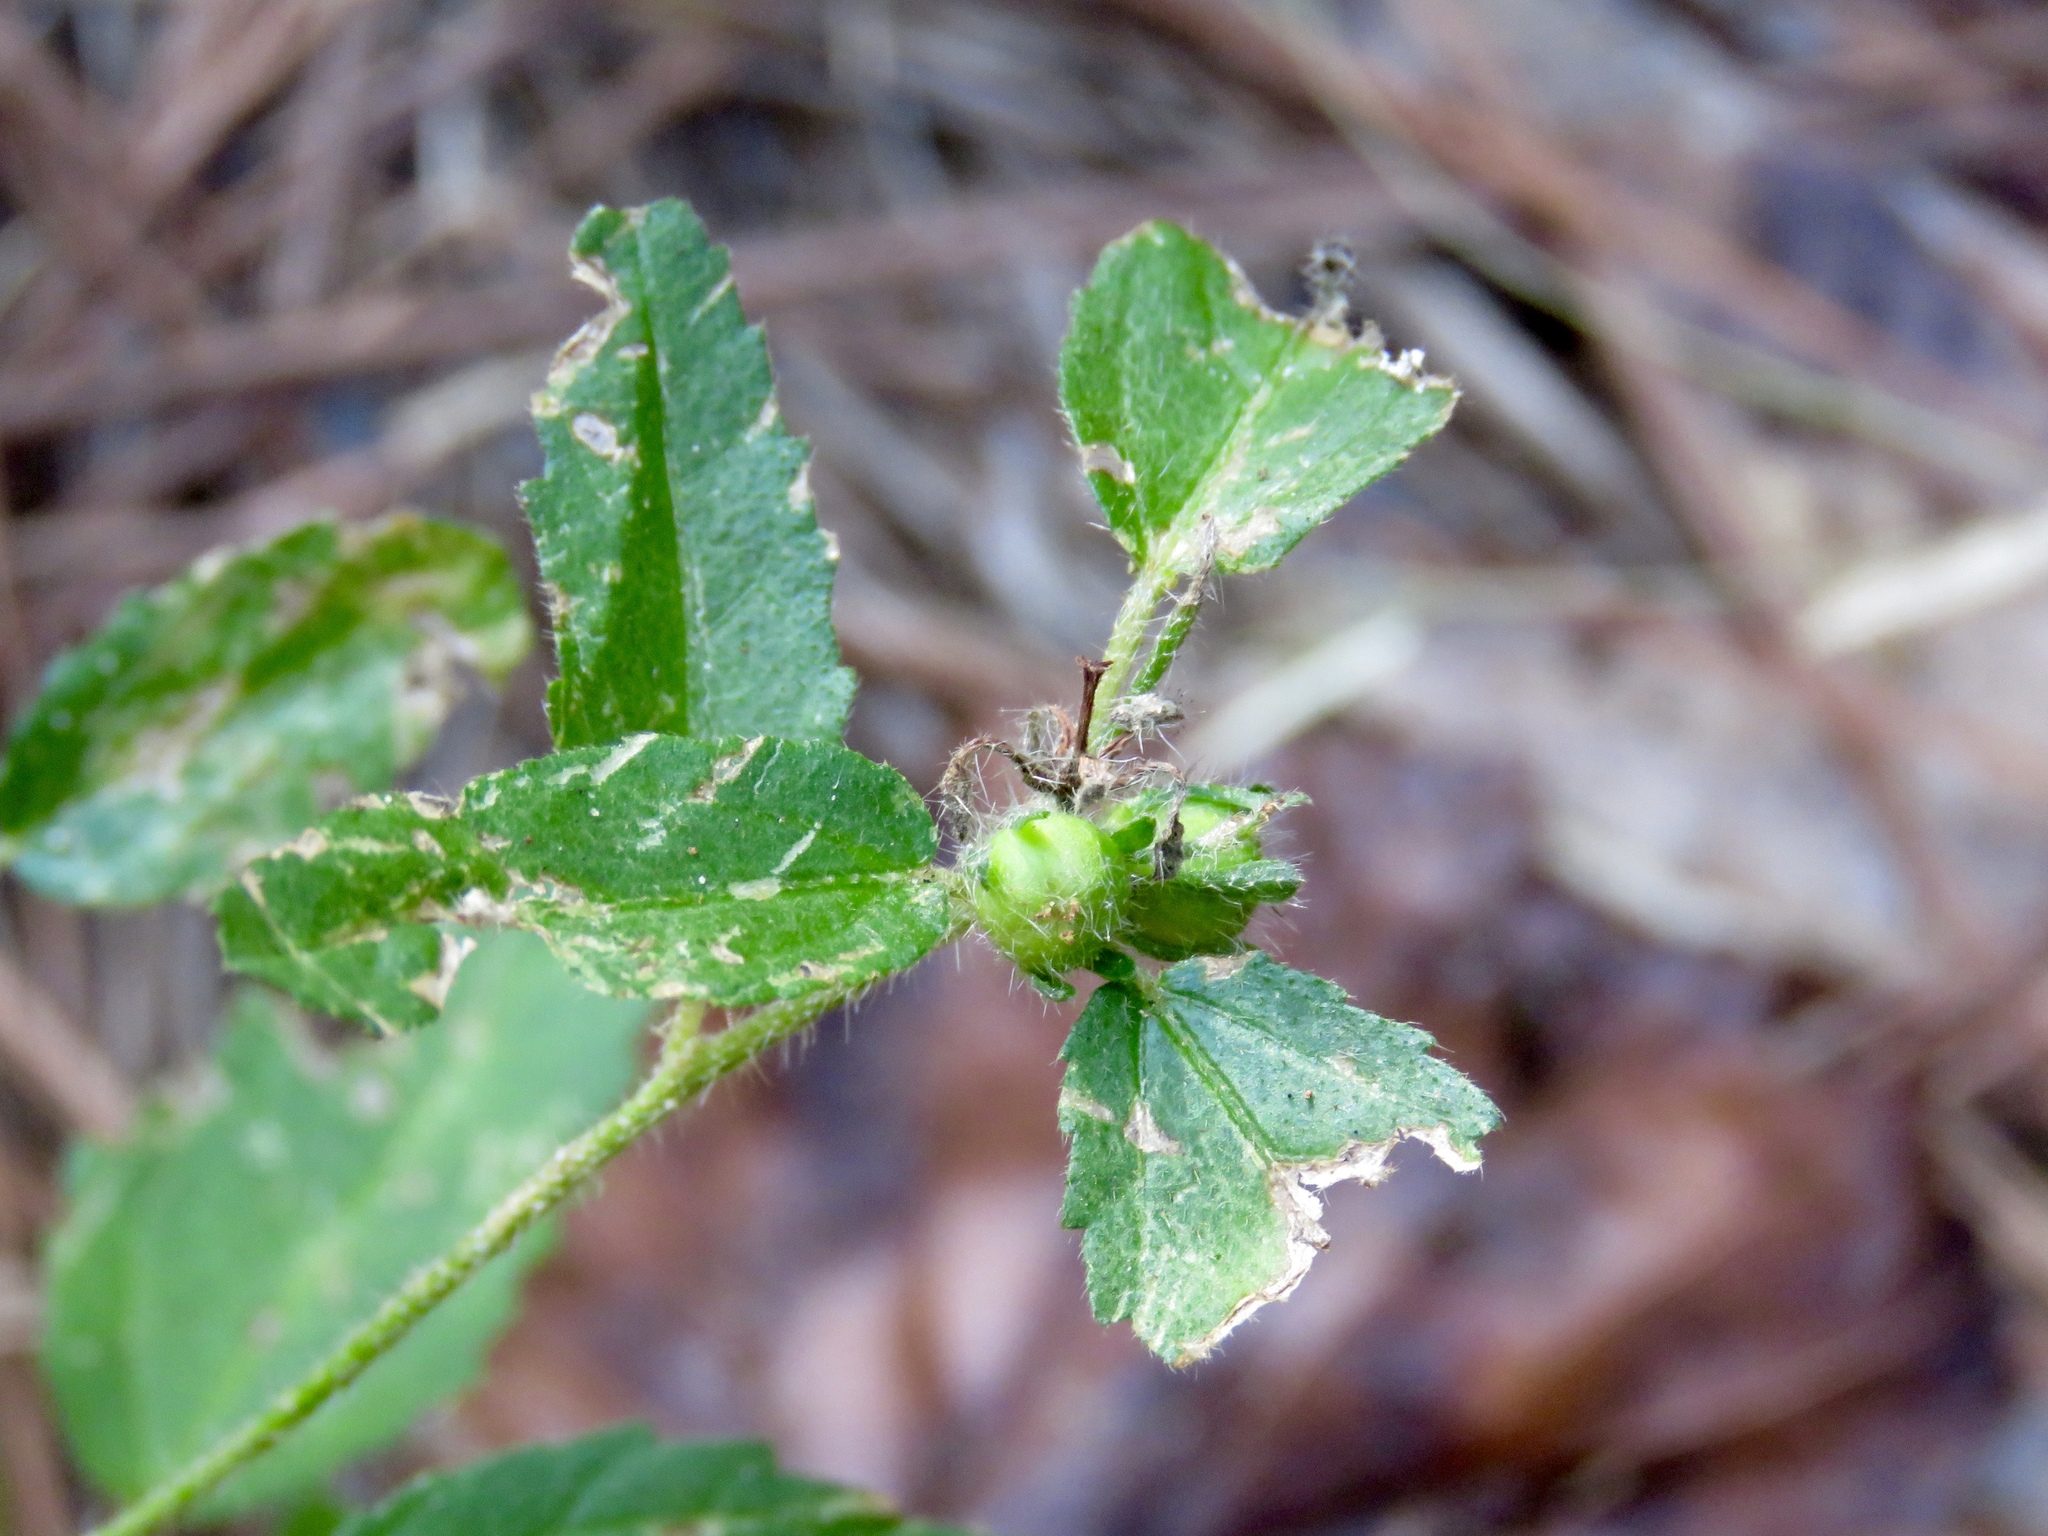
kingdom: Plantae
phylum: Tracheophyta
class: Magnoliopsida
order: Malpighiales
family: Euphorbiaceae
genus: Croton
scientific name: Croton glandulosus
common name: Tropic croton
